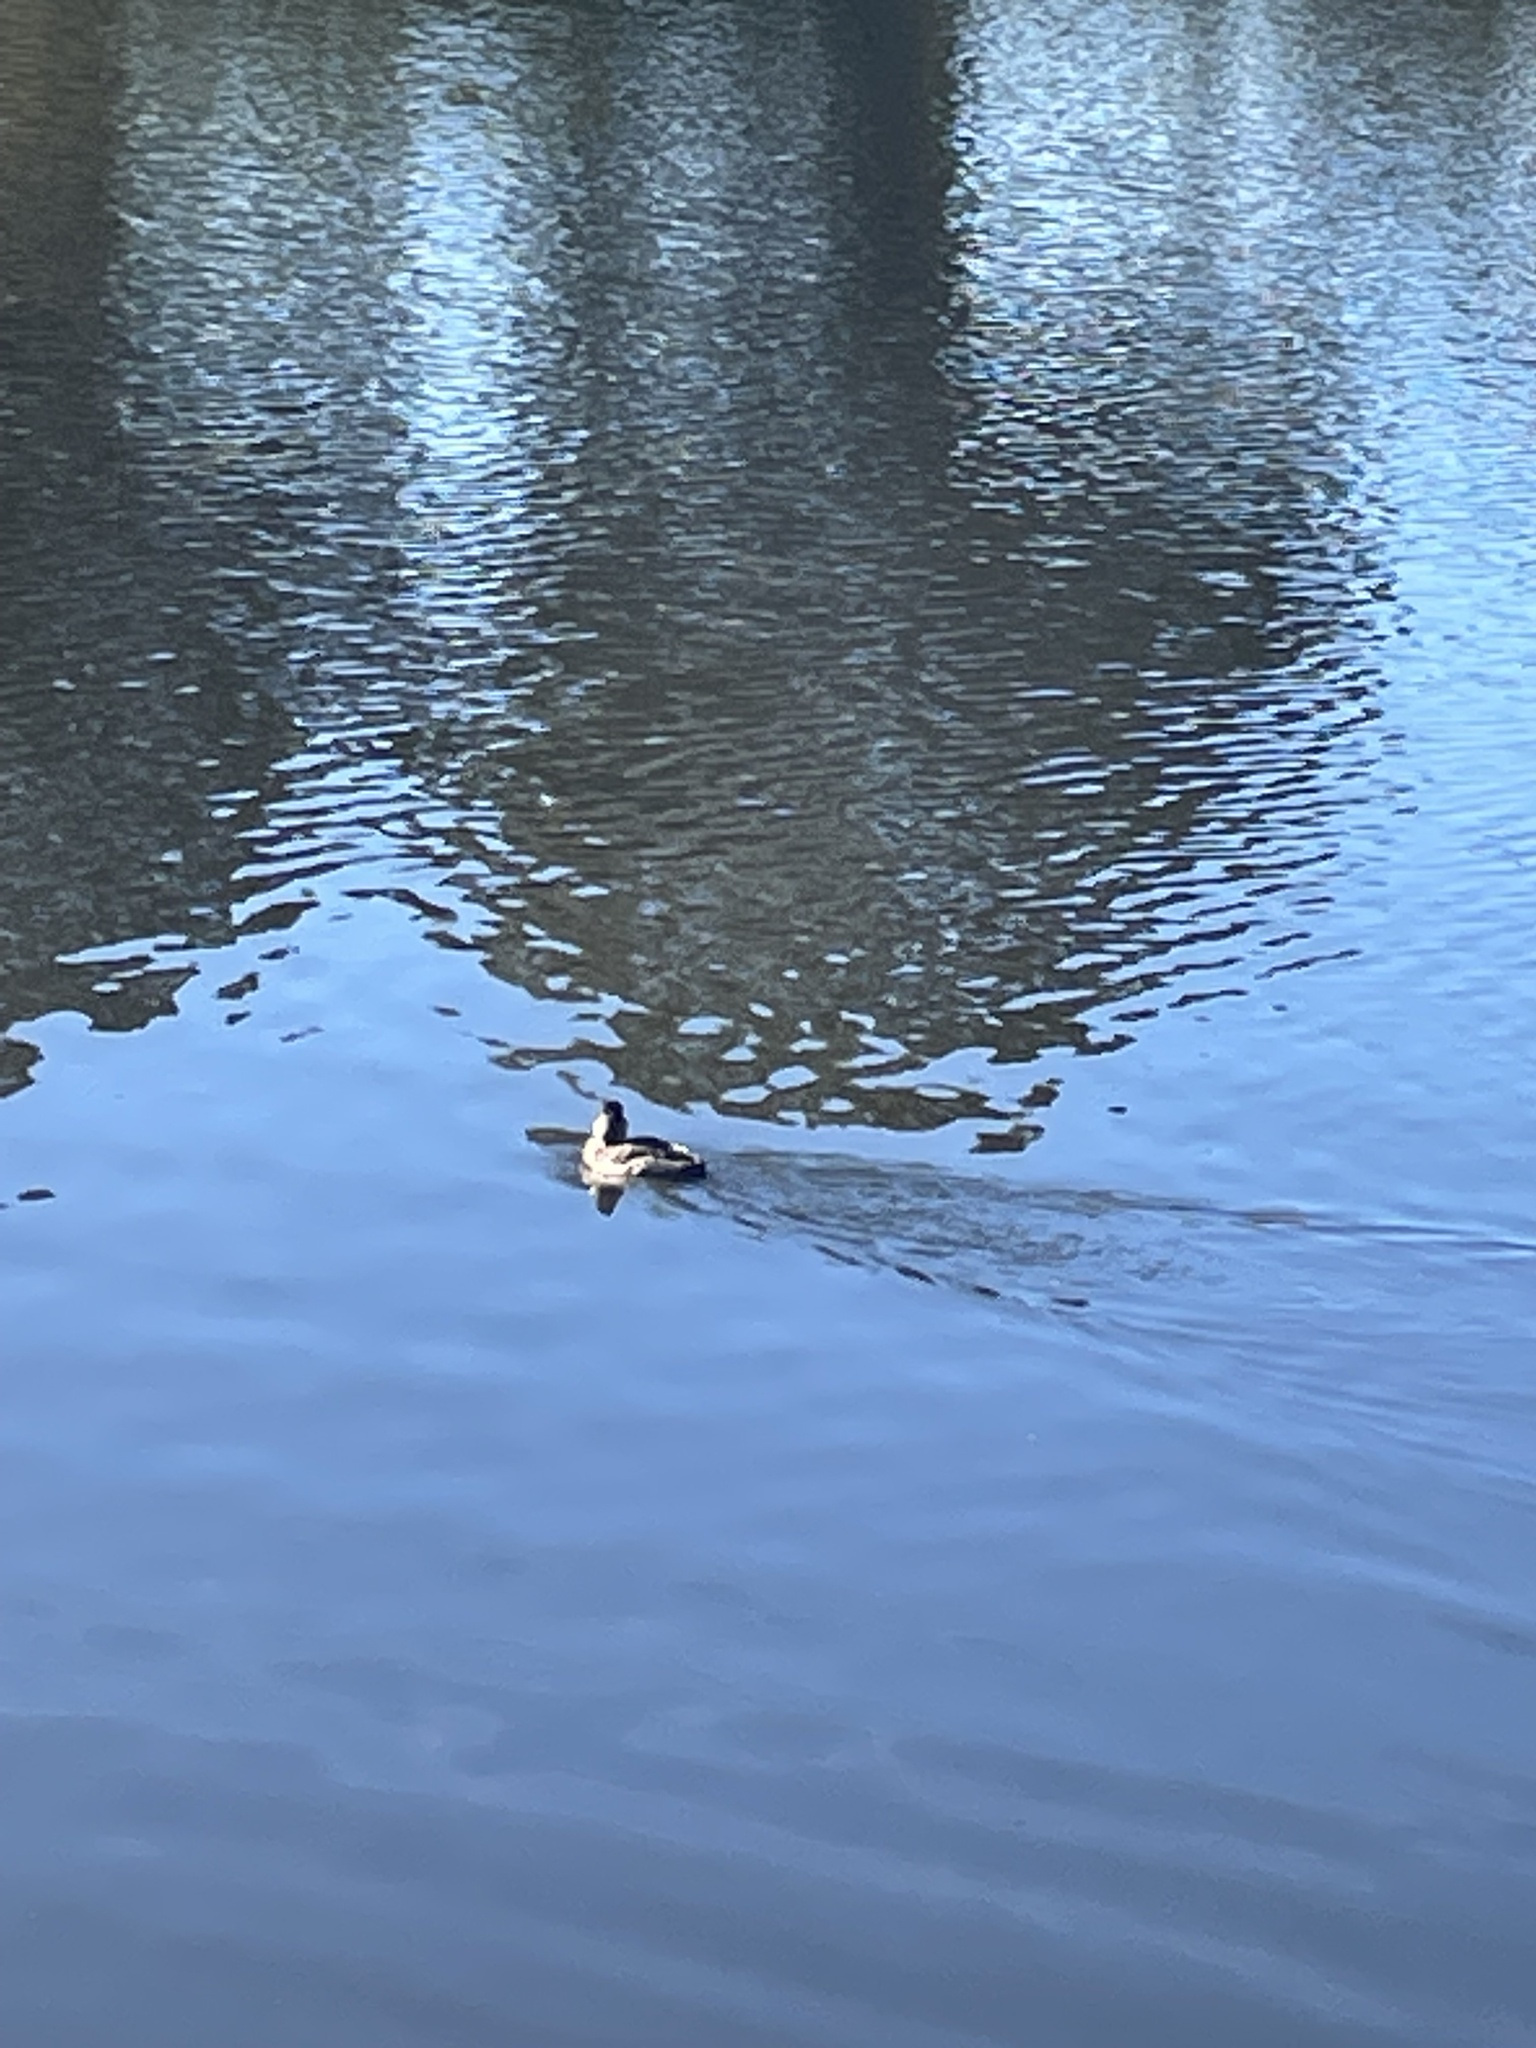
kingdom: Animalia
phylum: Chordata
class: Aves
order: Anseriformes
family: Anatidae
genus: Oxyura
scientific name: Oxyura jamaicensis
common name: Ruddy duck
